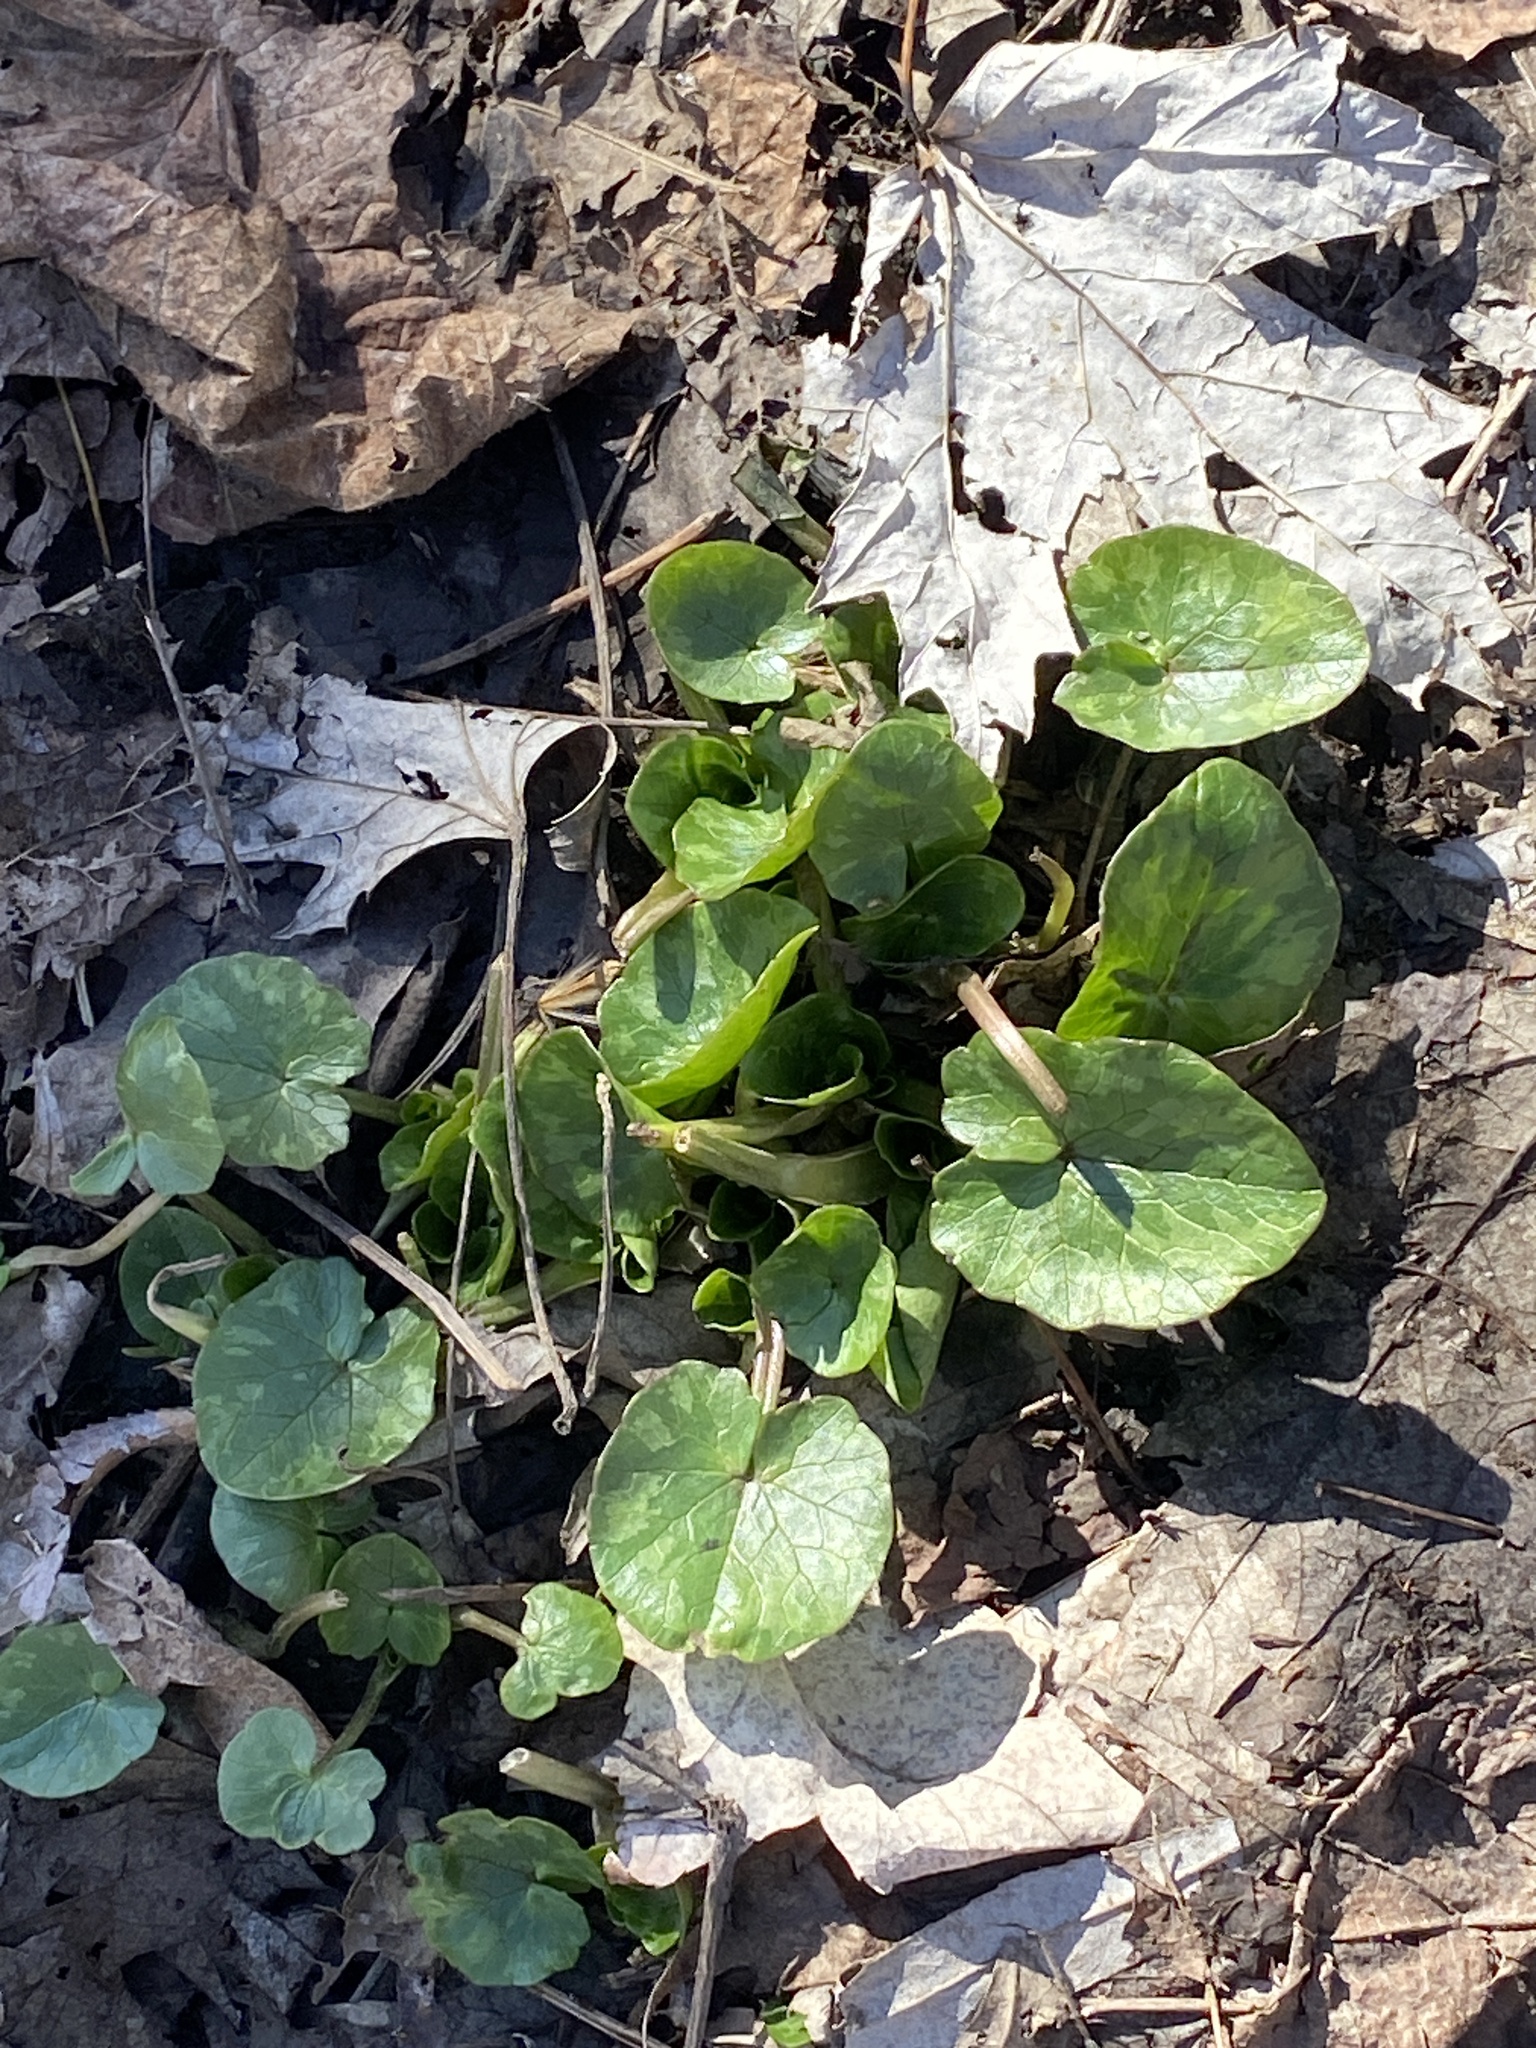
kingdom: Plantae
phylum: Tracheophyta
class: Magnoliopsida
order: Ranunculales
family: Ranunculaceae
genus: Ficaria
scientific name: Ficaria verna
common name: Lesser celandine
